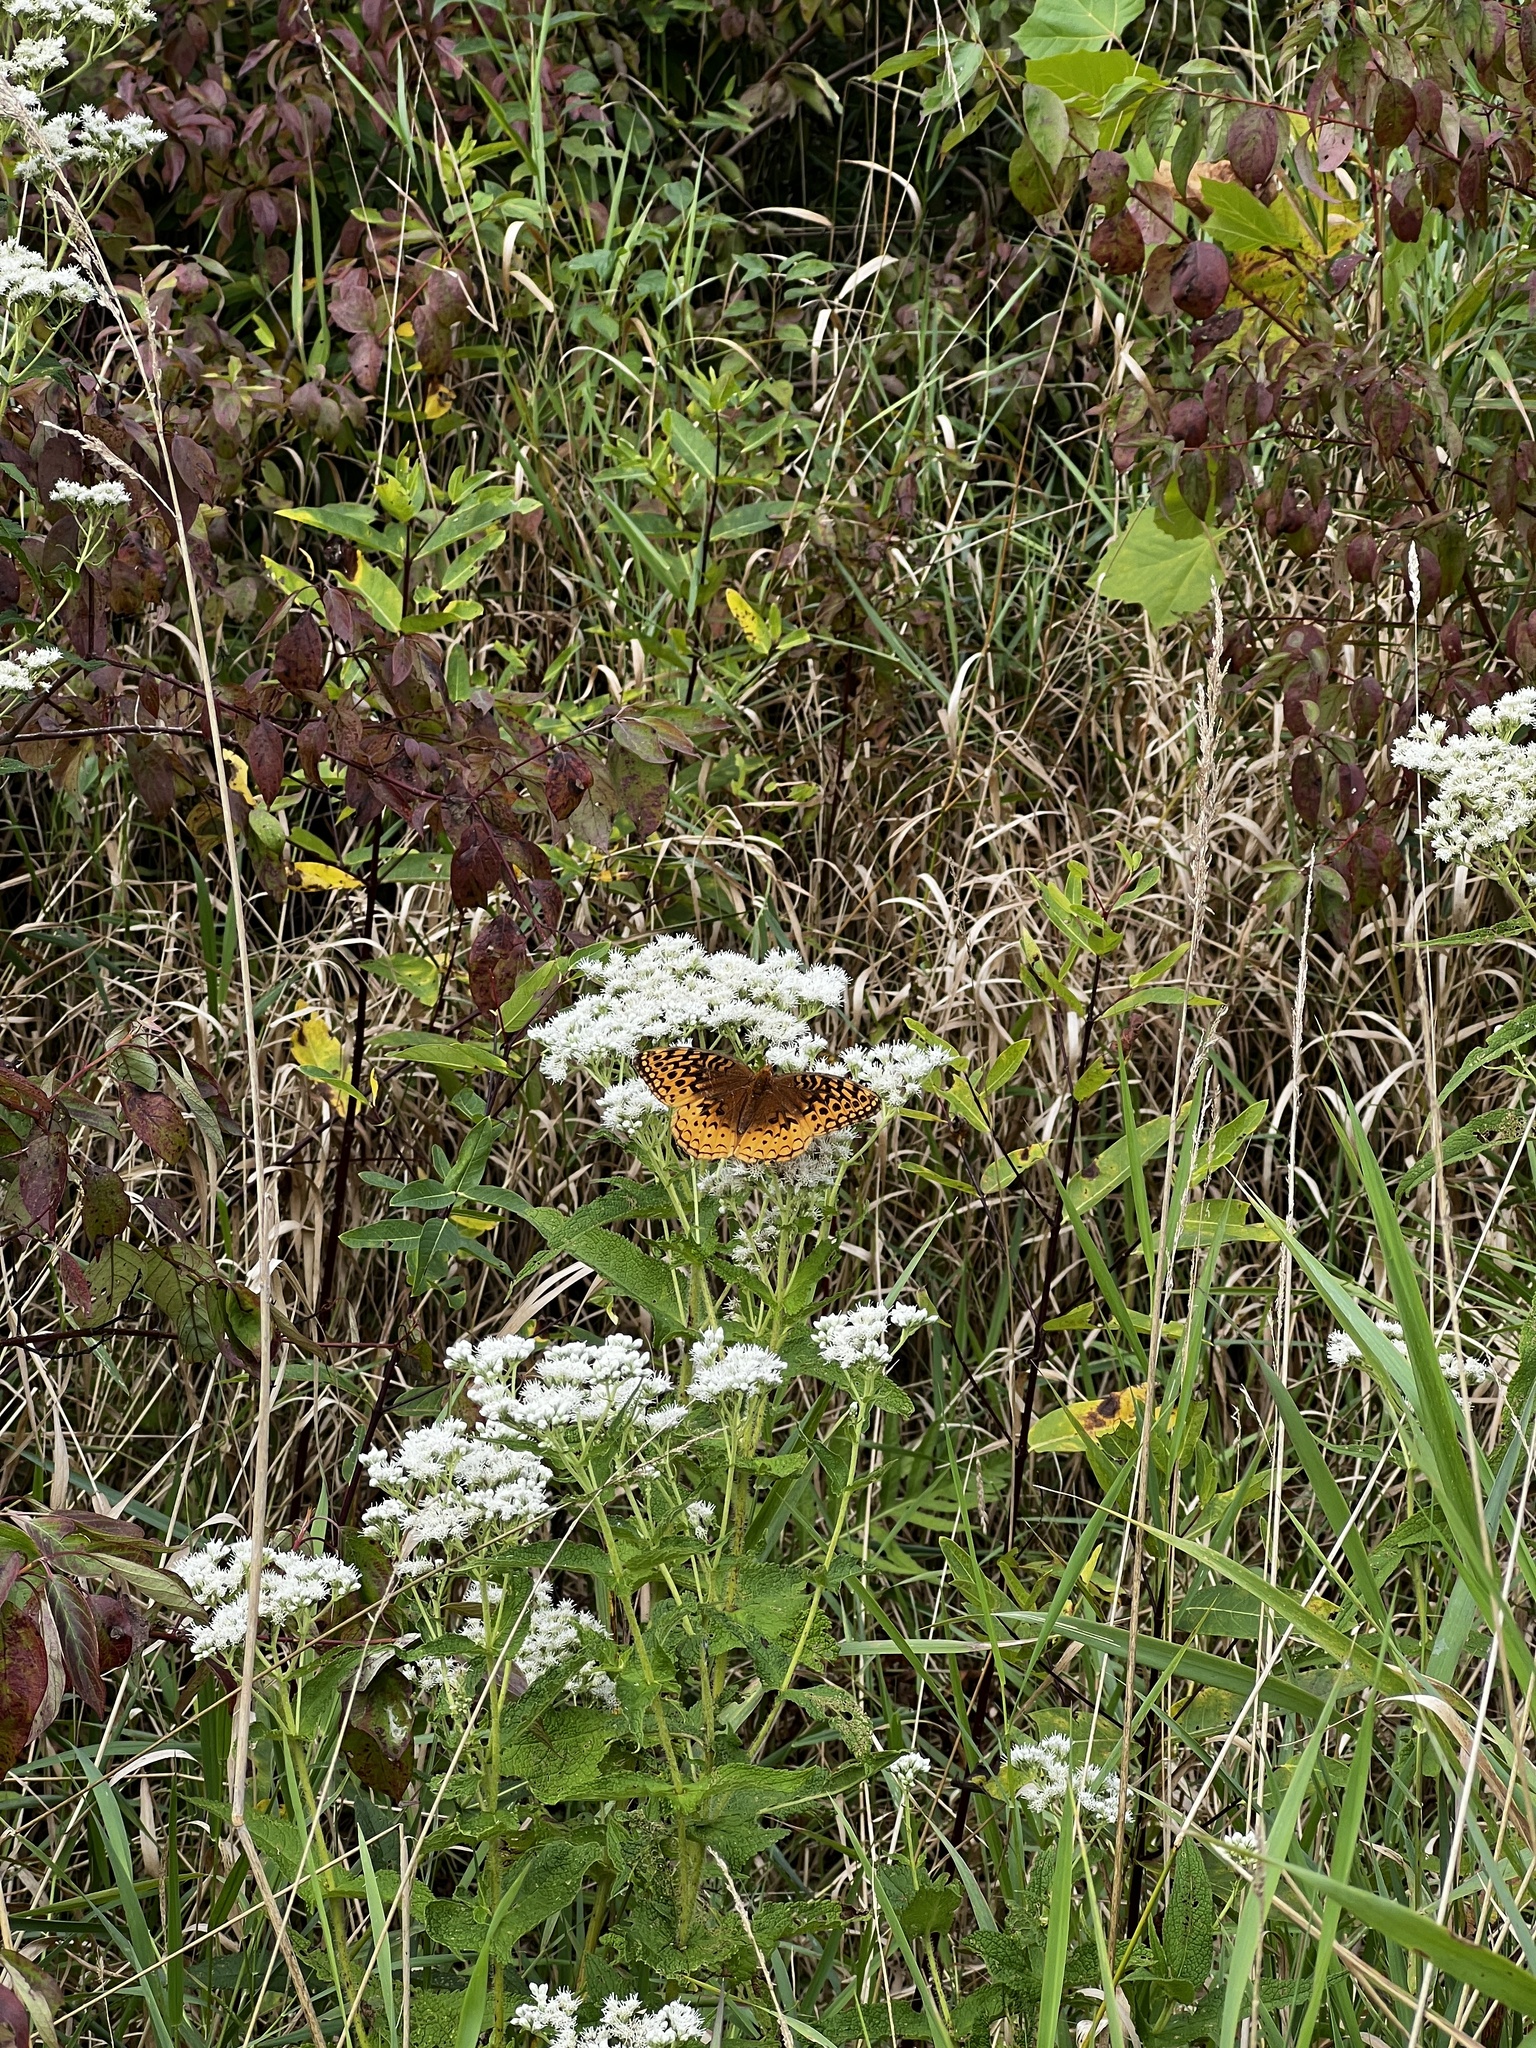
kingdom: Animalia
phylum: Arthropoda
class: Insecta
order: Lepidoptera
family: Nymphalidae
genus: Speyeria
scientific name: Speyeria cybele
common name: Great spangled fritillary
